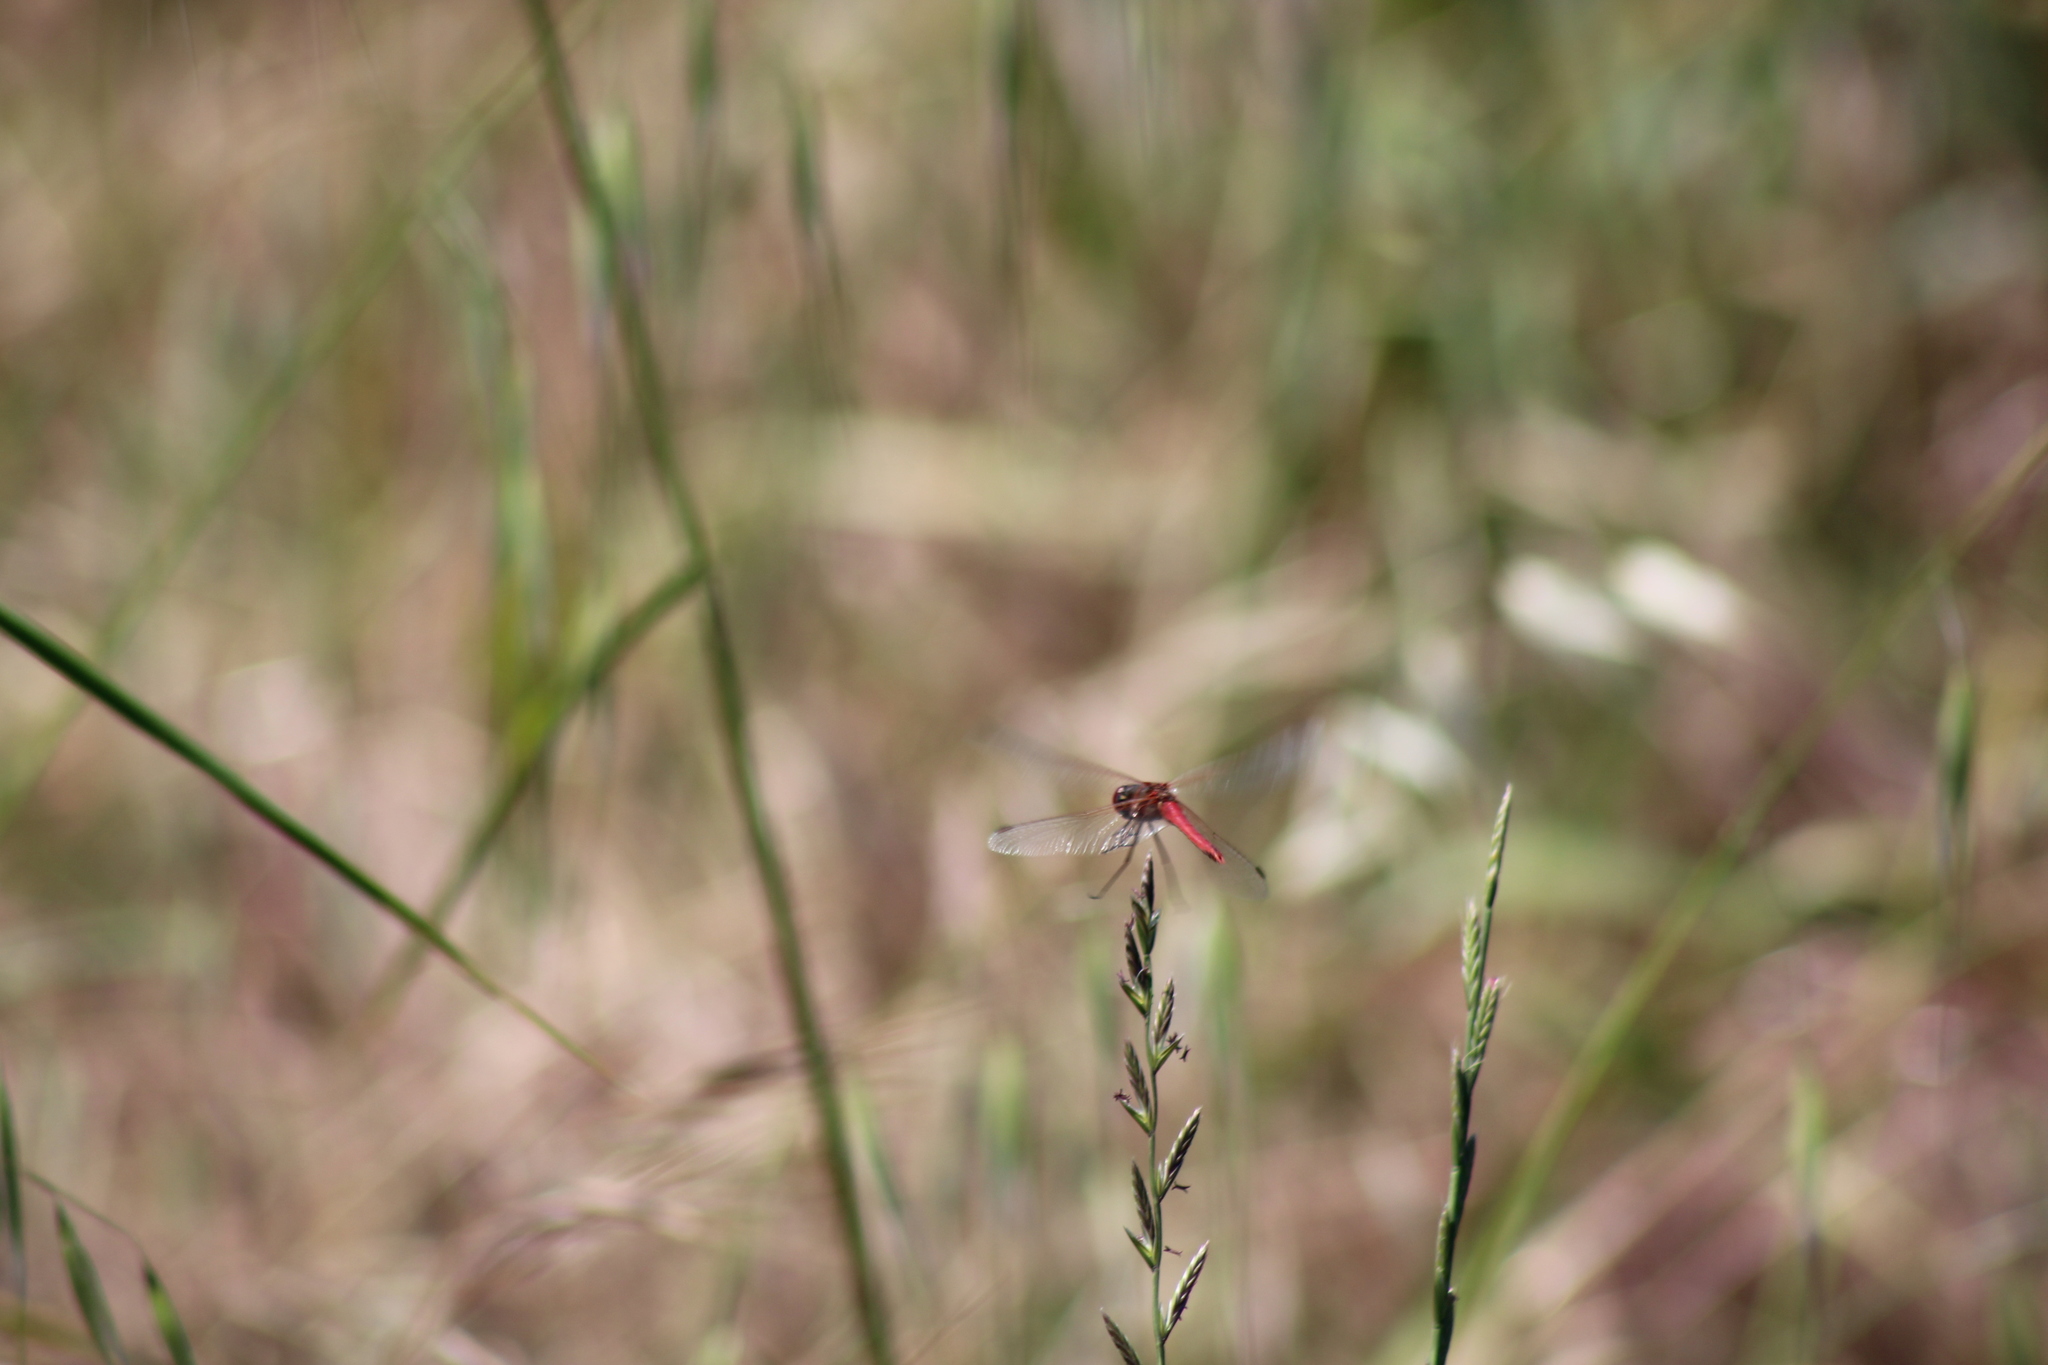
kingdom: Animalia
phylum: Arthropoda
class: Insecta
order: Odonata
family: Libellulidae
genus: Sympetrum
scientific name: Sympetrum fonscolombii
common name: Red-veined darter
